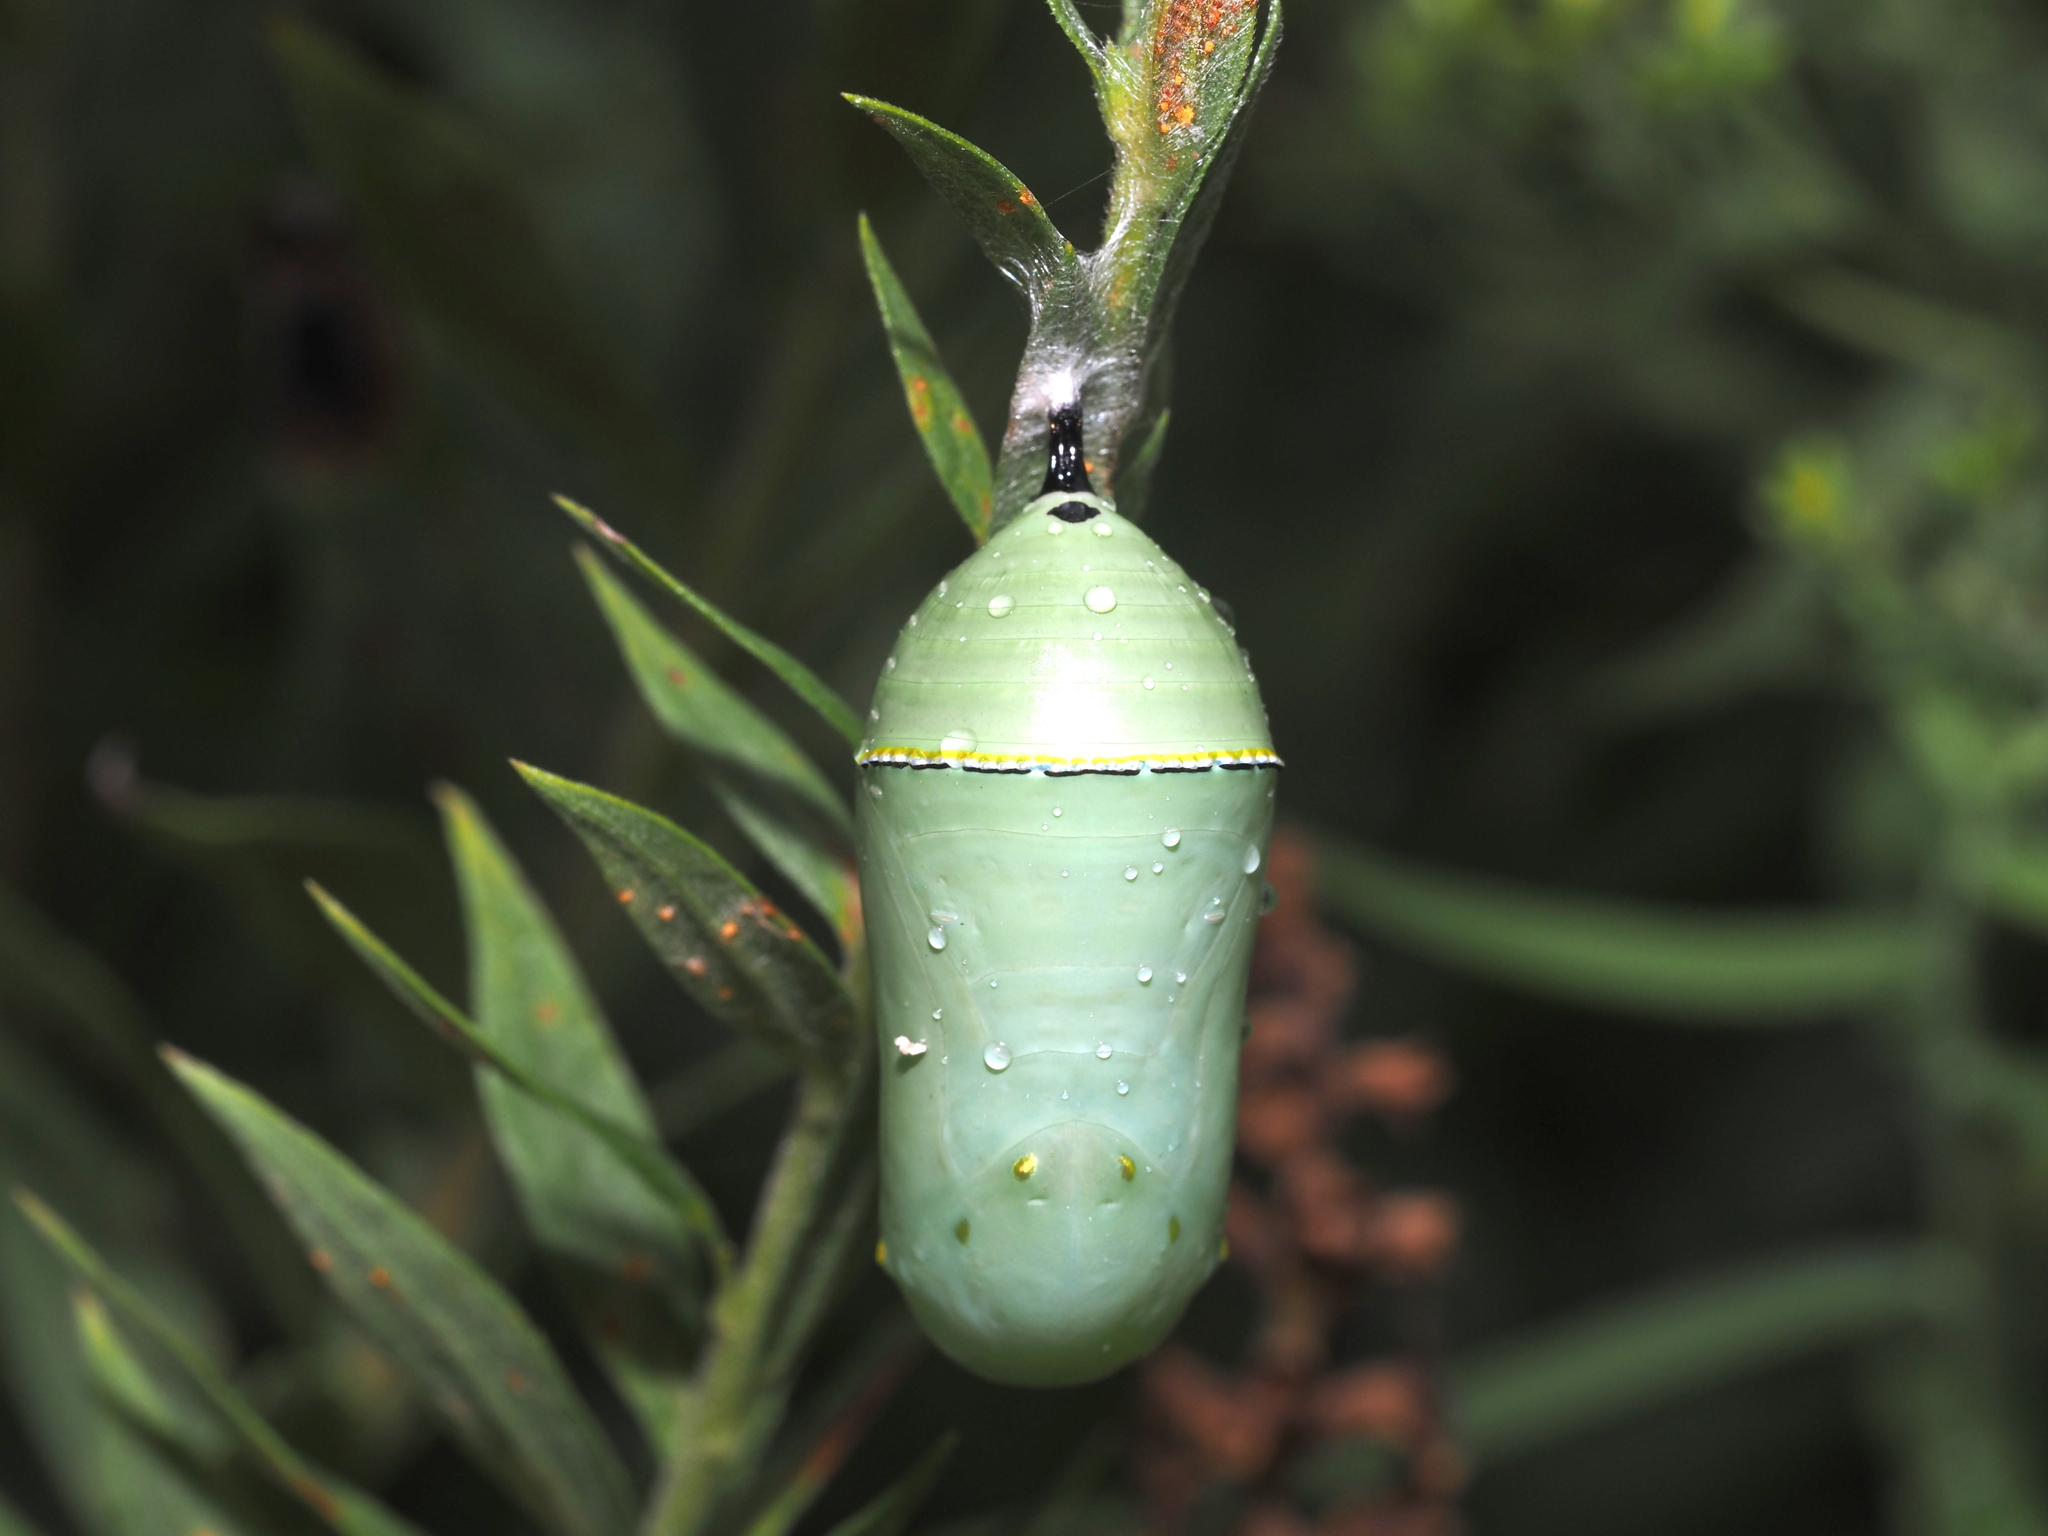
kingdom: Animalia
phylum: Arthropoda
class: Insecta
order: Lepidoptera
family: Nymphalidae
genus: Danaus
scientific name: Danaus plexippus
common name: Monarch
